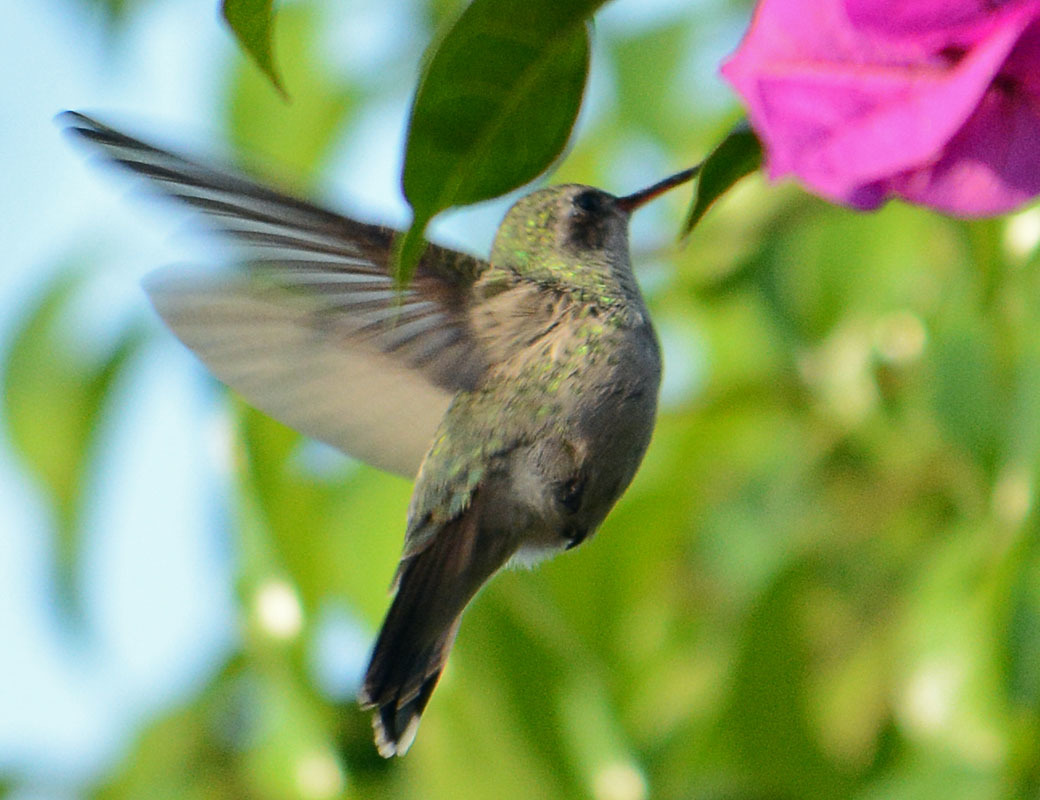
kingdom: Animalia
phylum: Chordata
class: Aves
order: Apodiformes
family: Trochilidae
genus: Cynanthus
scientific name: Cynanthus latirostris
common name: Broad-billed hummingbird
